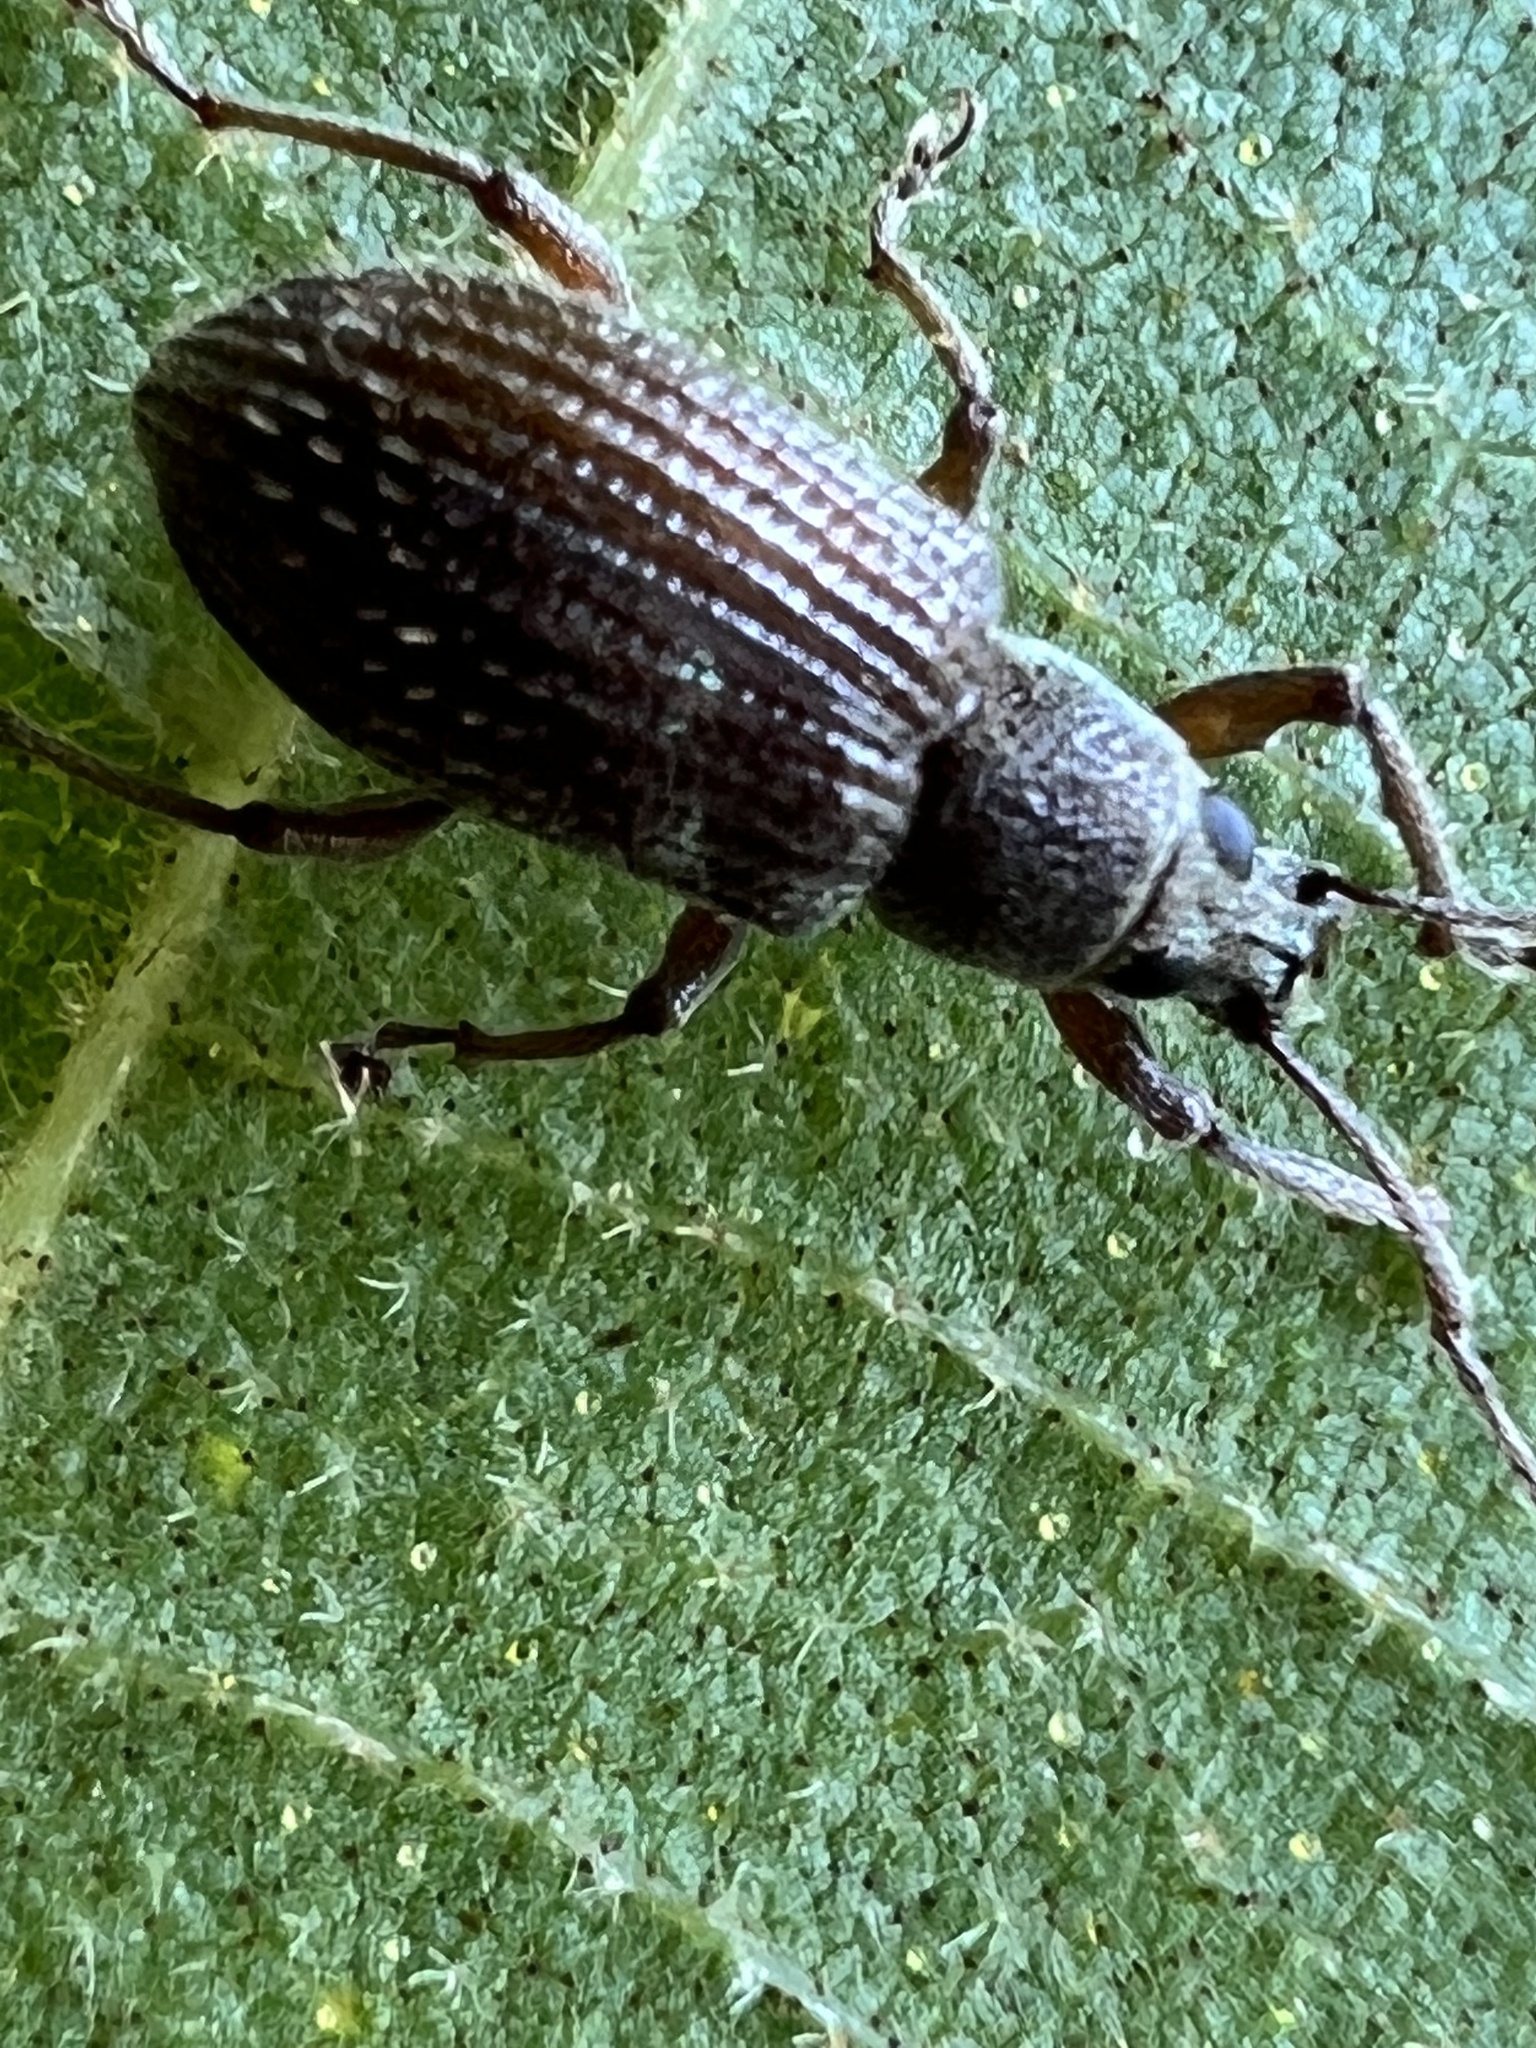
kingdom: Animalia
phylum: Arthropoda
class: Insecta
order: Coleoptera
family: Curculionidae
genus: Cyrtepistomus
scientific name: Cyrtepistomus castaneus
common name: Weevil
